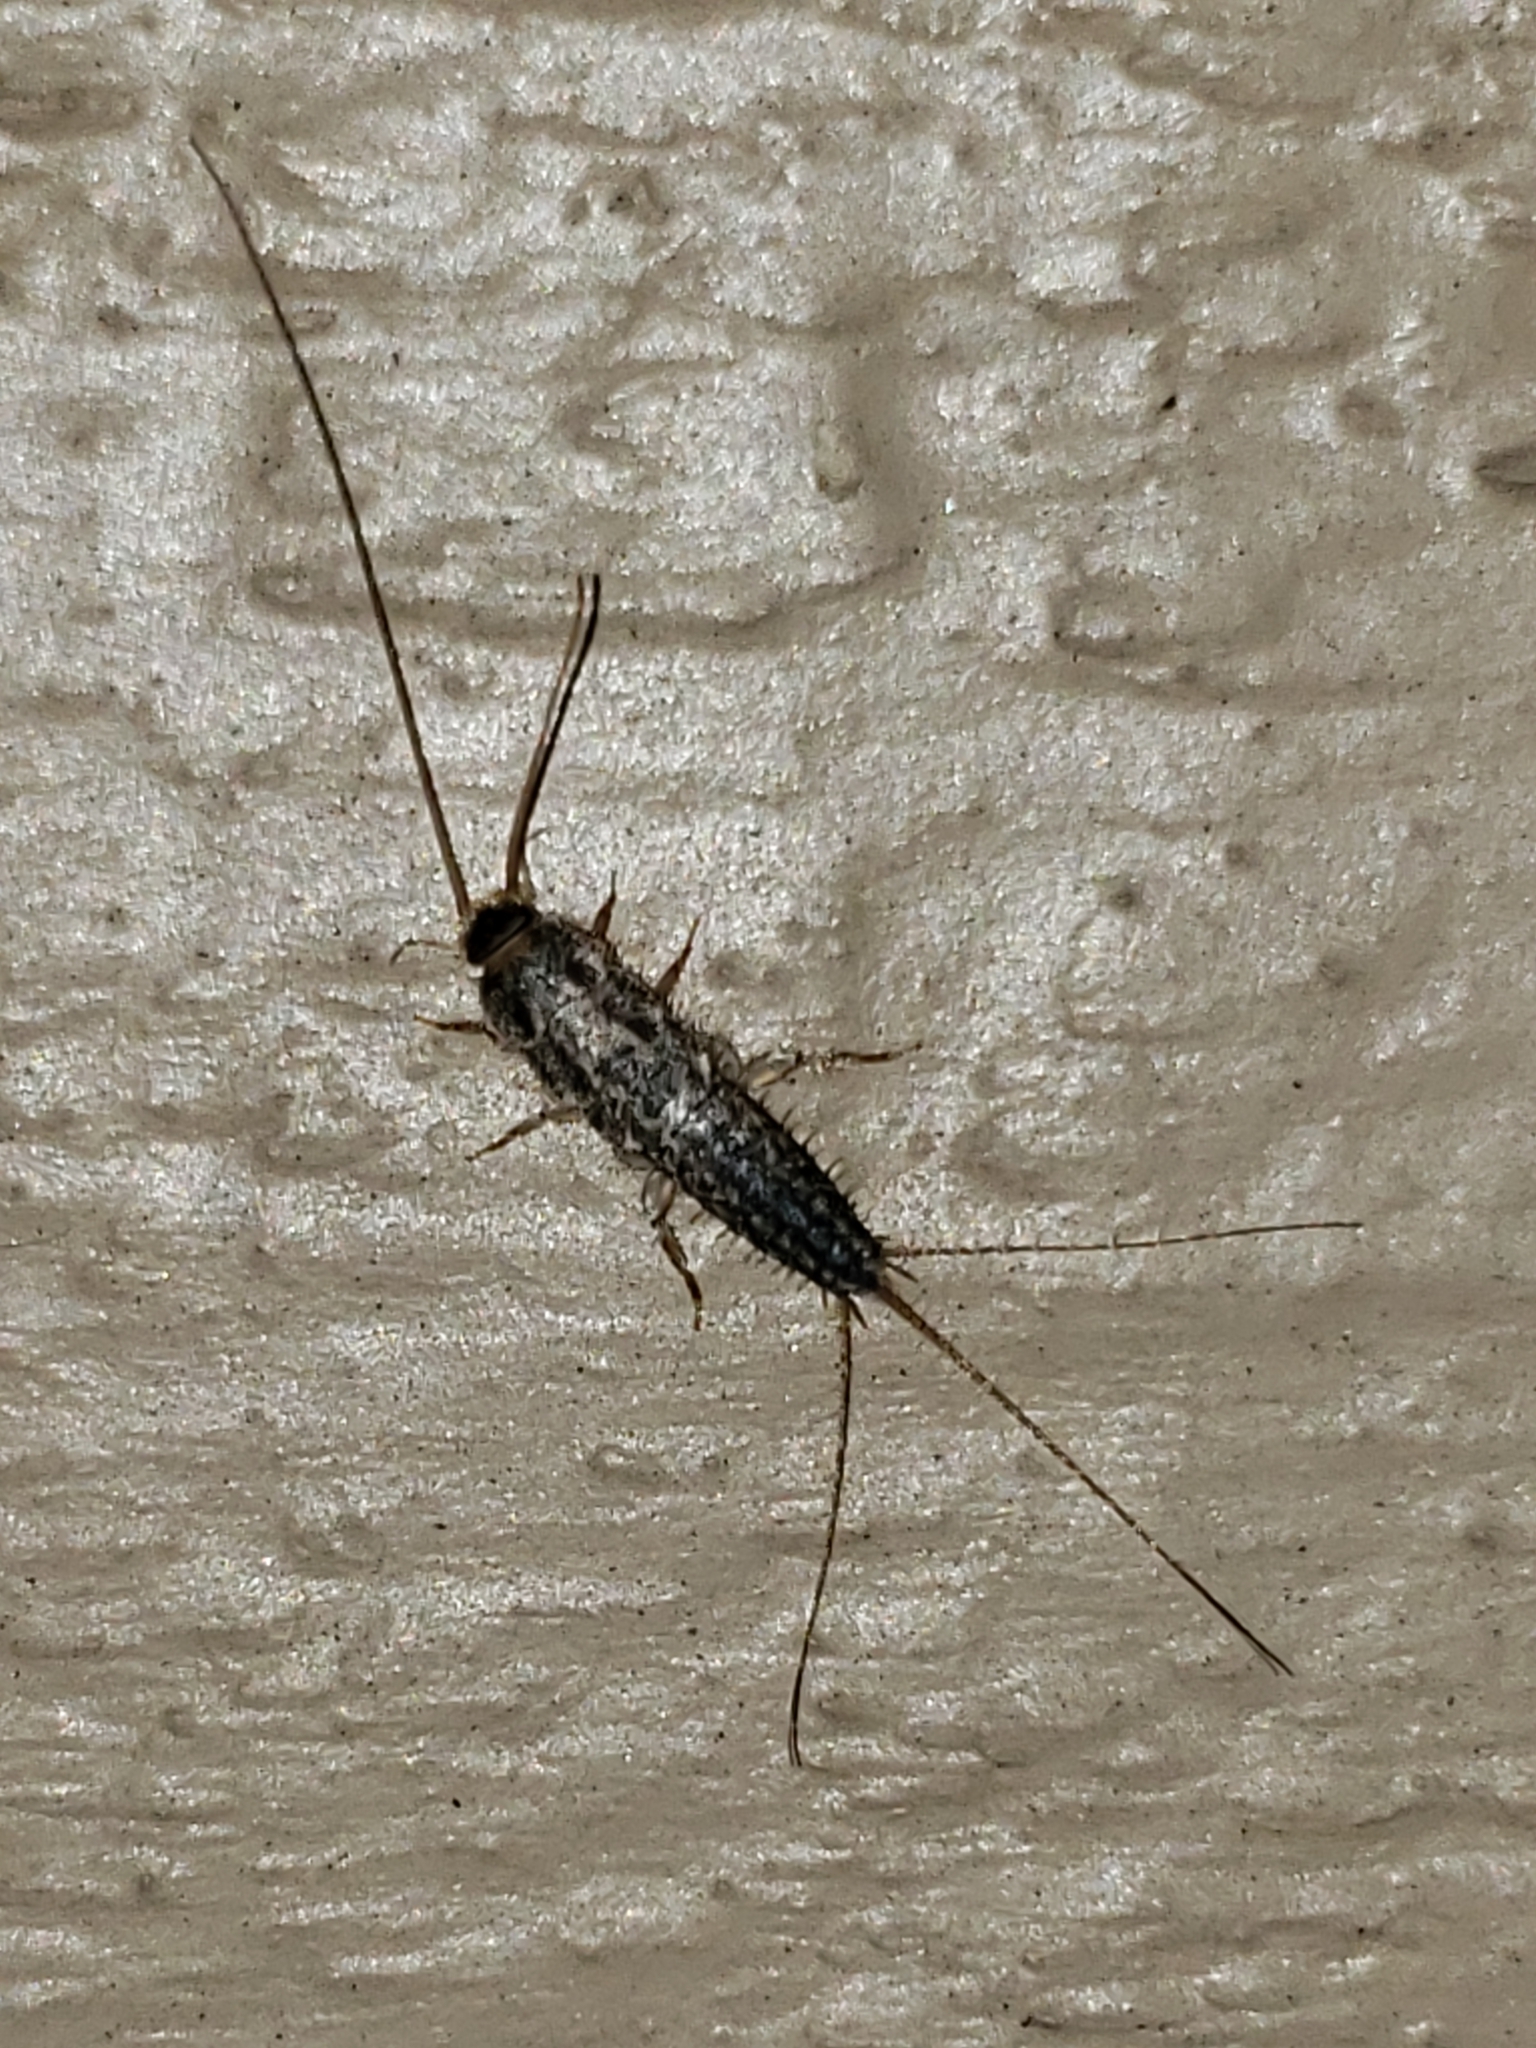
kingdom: Animalia
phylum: Arthropoda
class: Insecta
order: Zygentoma
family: Lepismatidae
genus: Ctenolepisma
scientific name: Ctenolepisma lineata
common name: Four-lined silverfish
